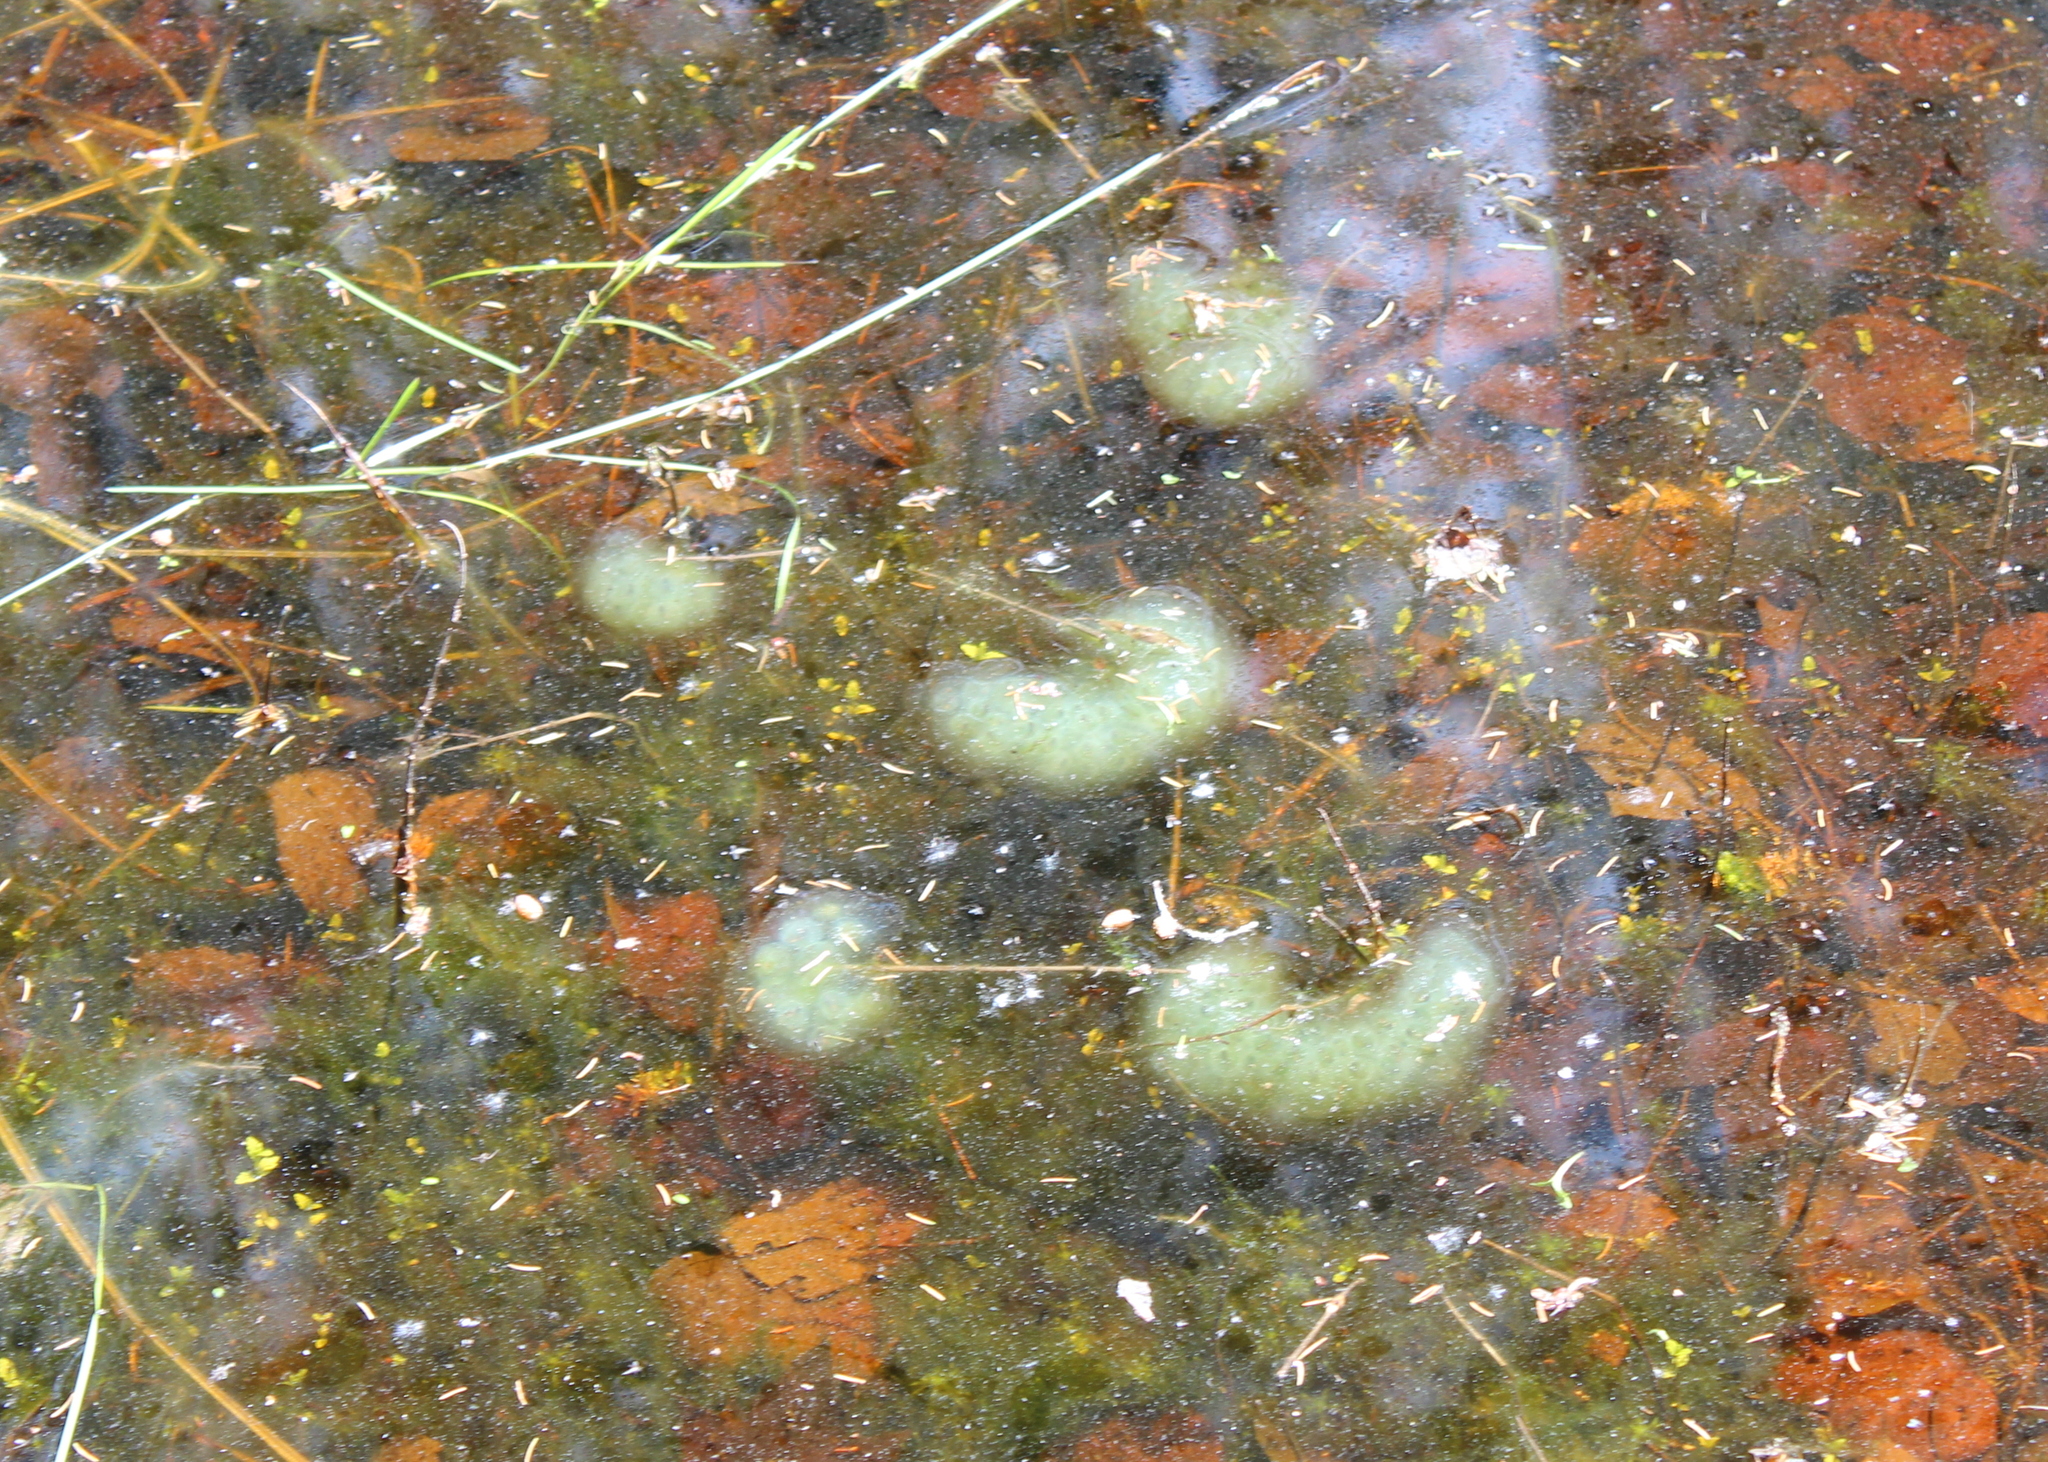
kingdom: Animalia
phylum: Chordata
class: Amphibia
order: Caudata
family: Ambystomatidae
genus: Ambystoma
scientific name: Ambystoma maculatum
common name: Spotted salamander
